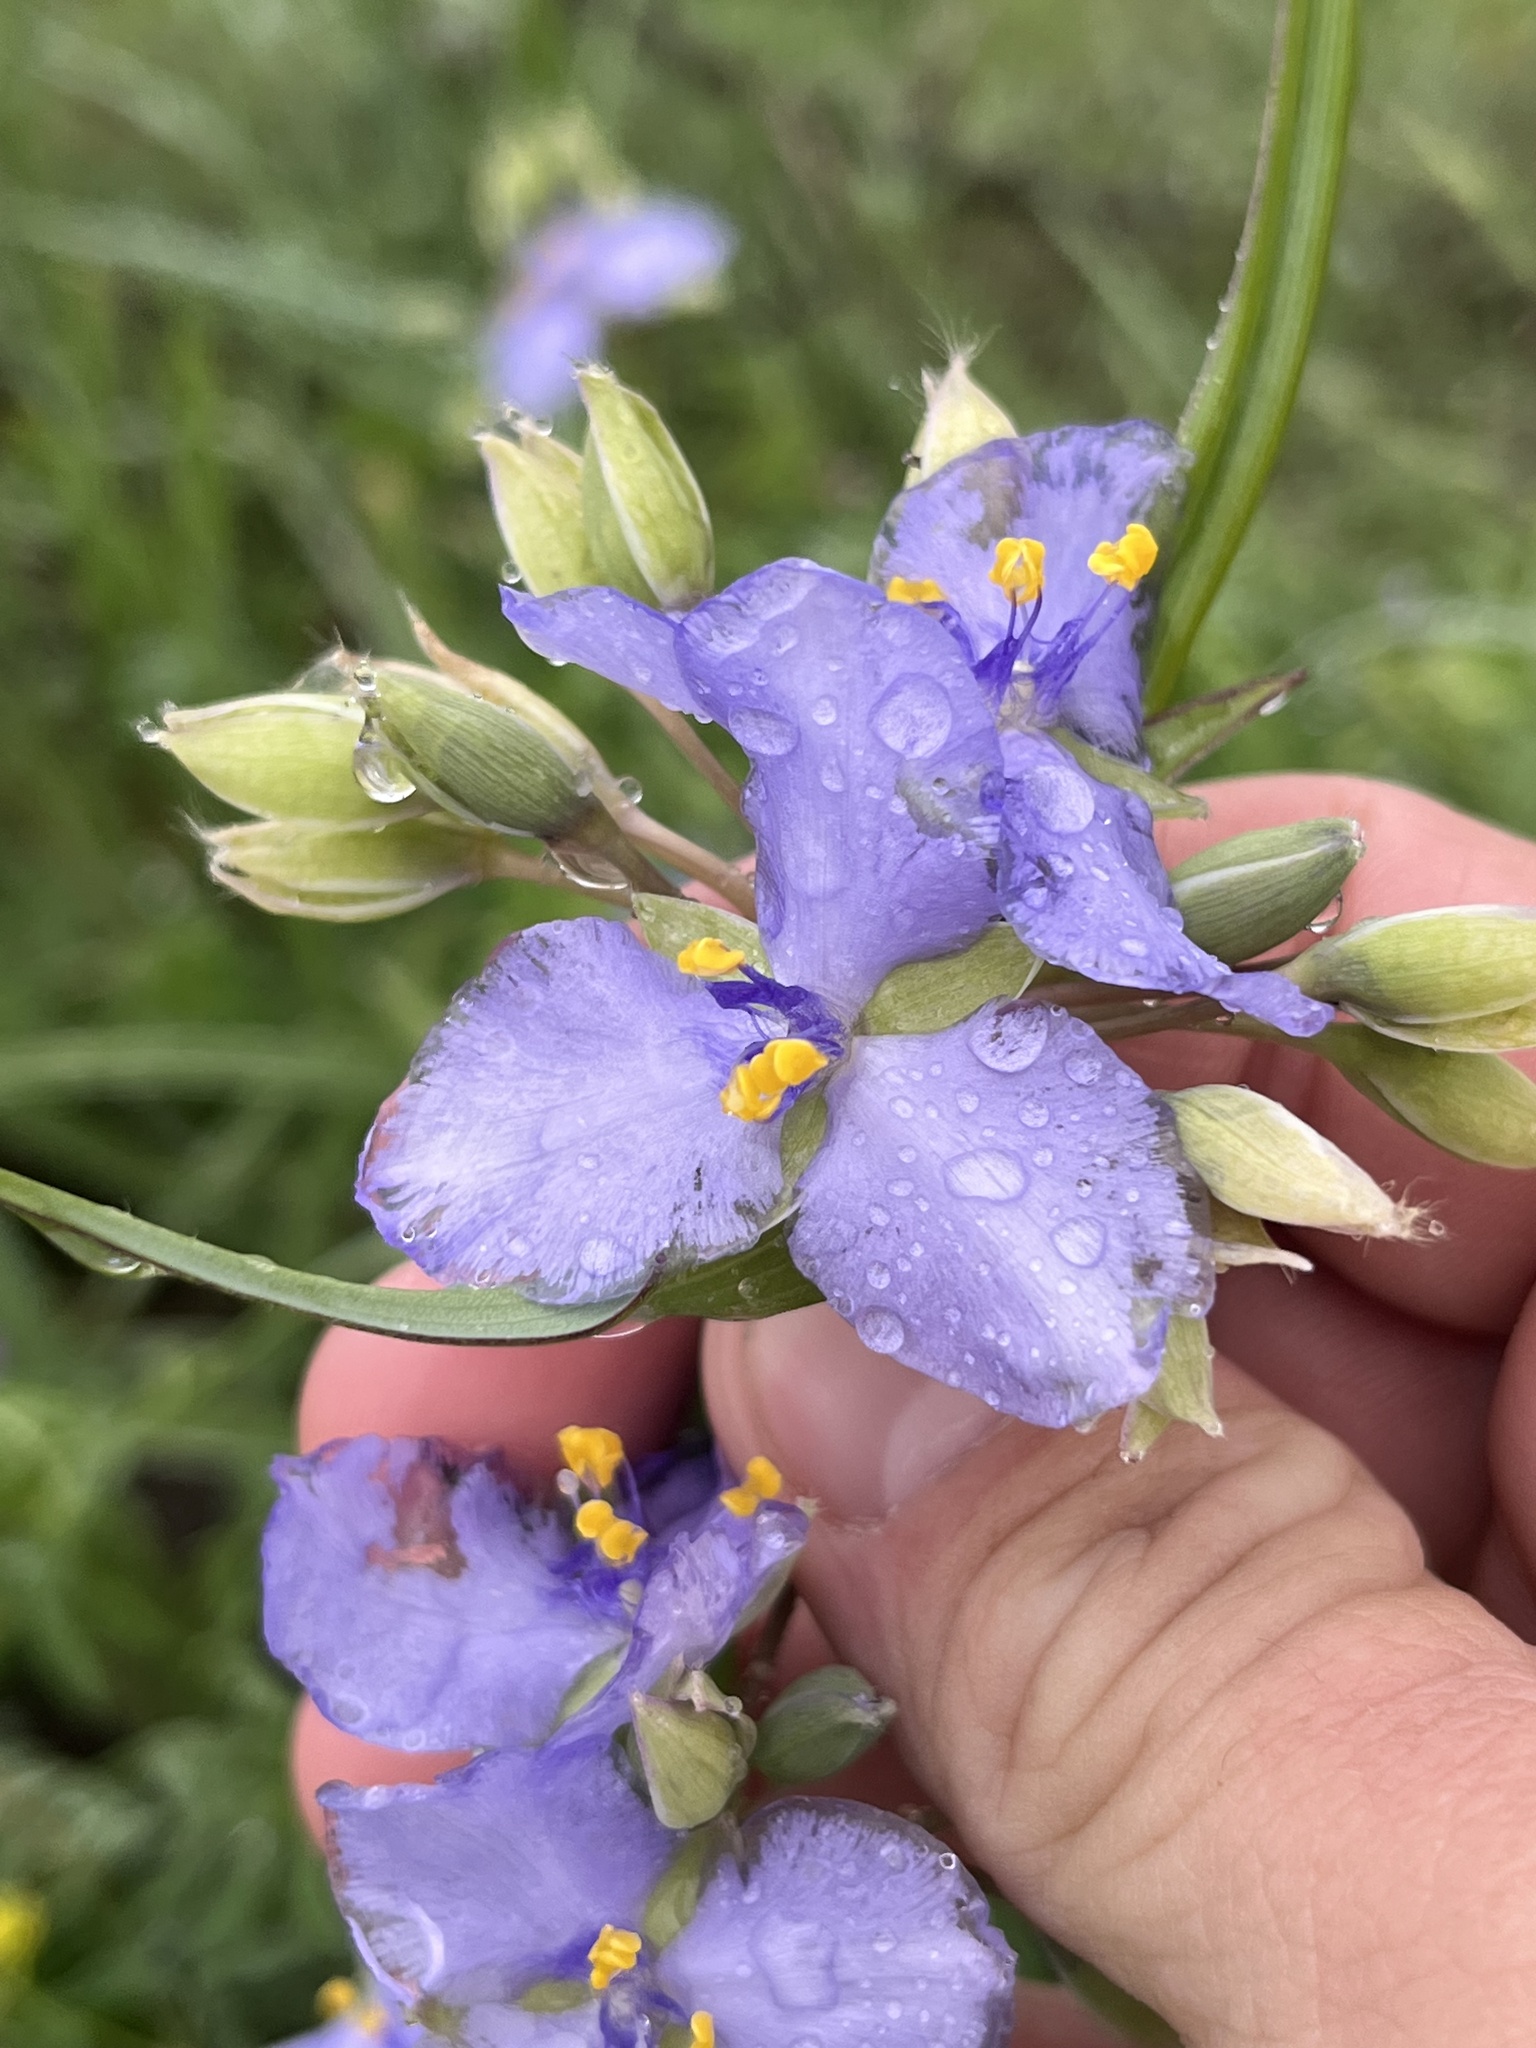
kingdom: Plantae
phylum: Tracheophyta
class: Liliopsida
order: Commelinales
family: Commelinaceae
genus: Tradescantia
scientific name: Tradescantia ohiensis
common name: Ohio spiderwort
